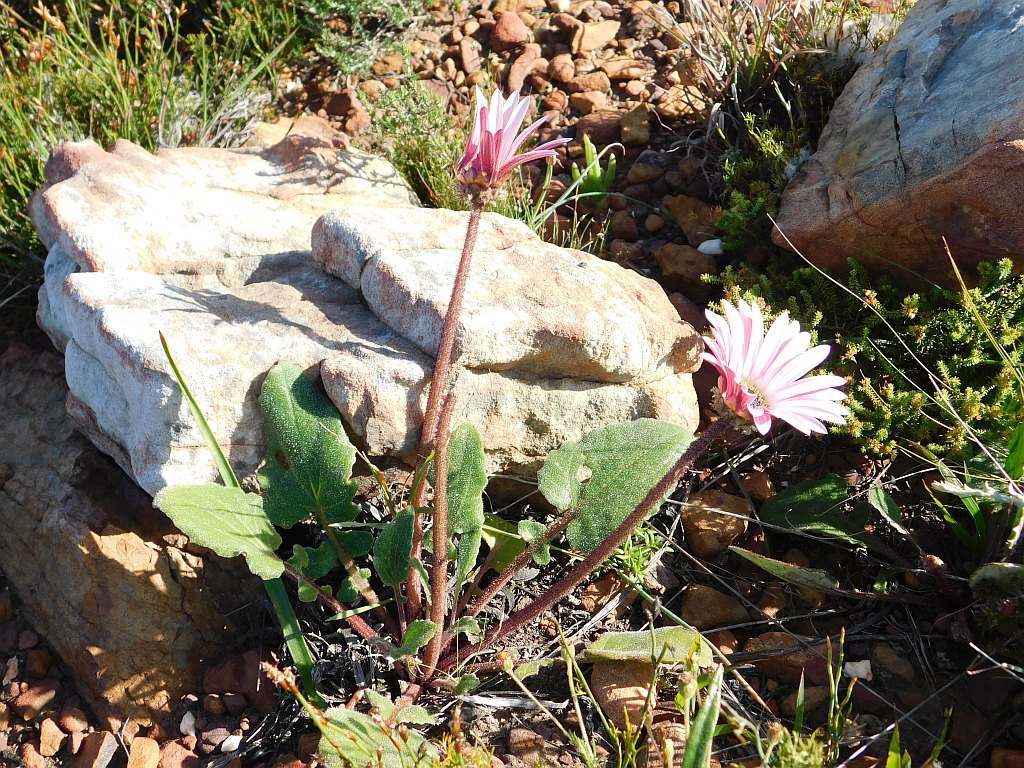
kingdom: Plantae
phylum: Tracheophyta
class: Magnoliopsida
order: Asterales
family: Asteraceae
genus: Arctotis
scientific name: Arctotis acaulis
